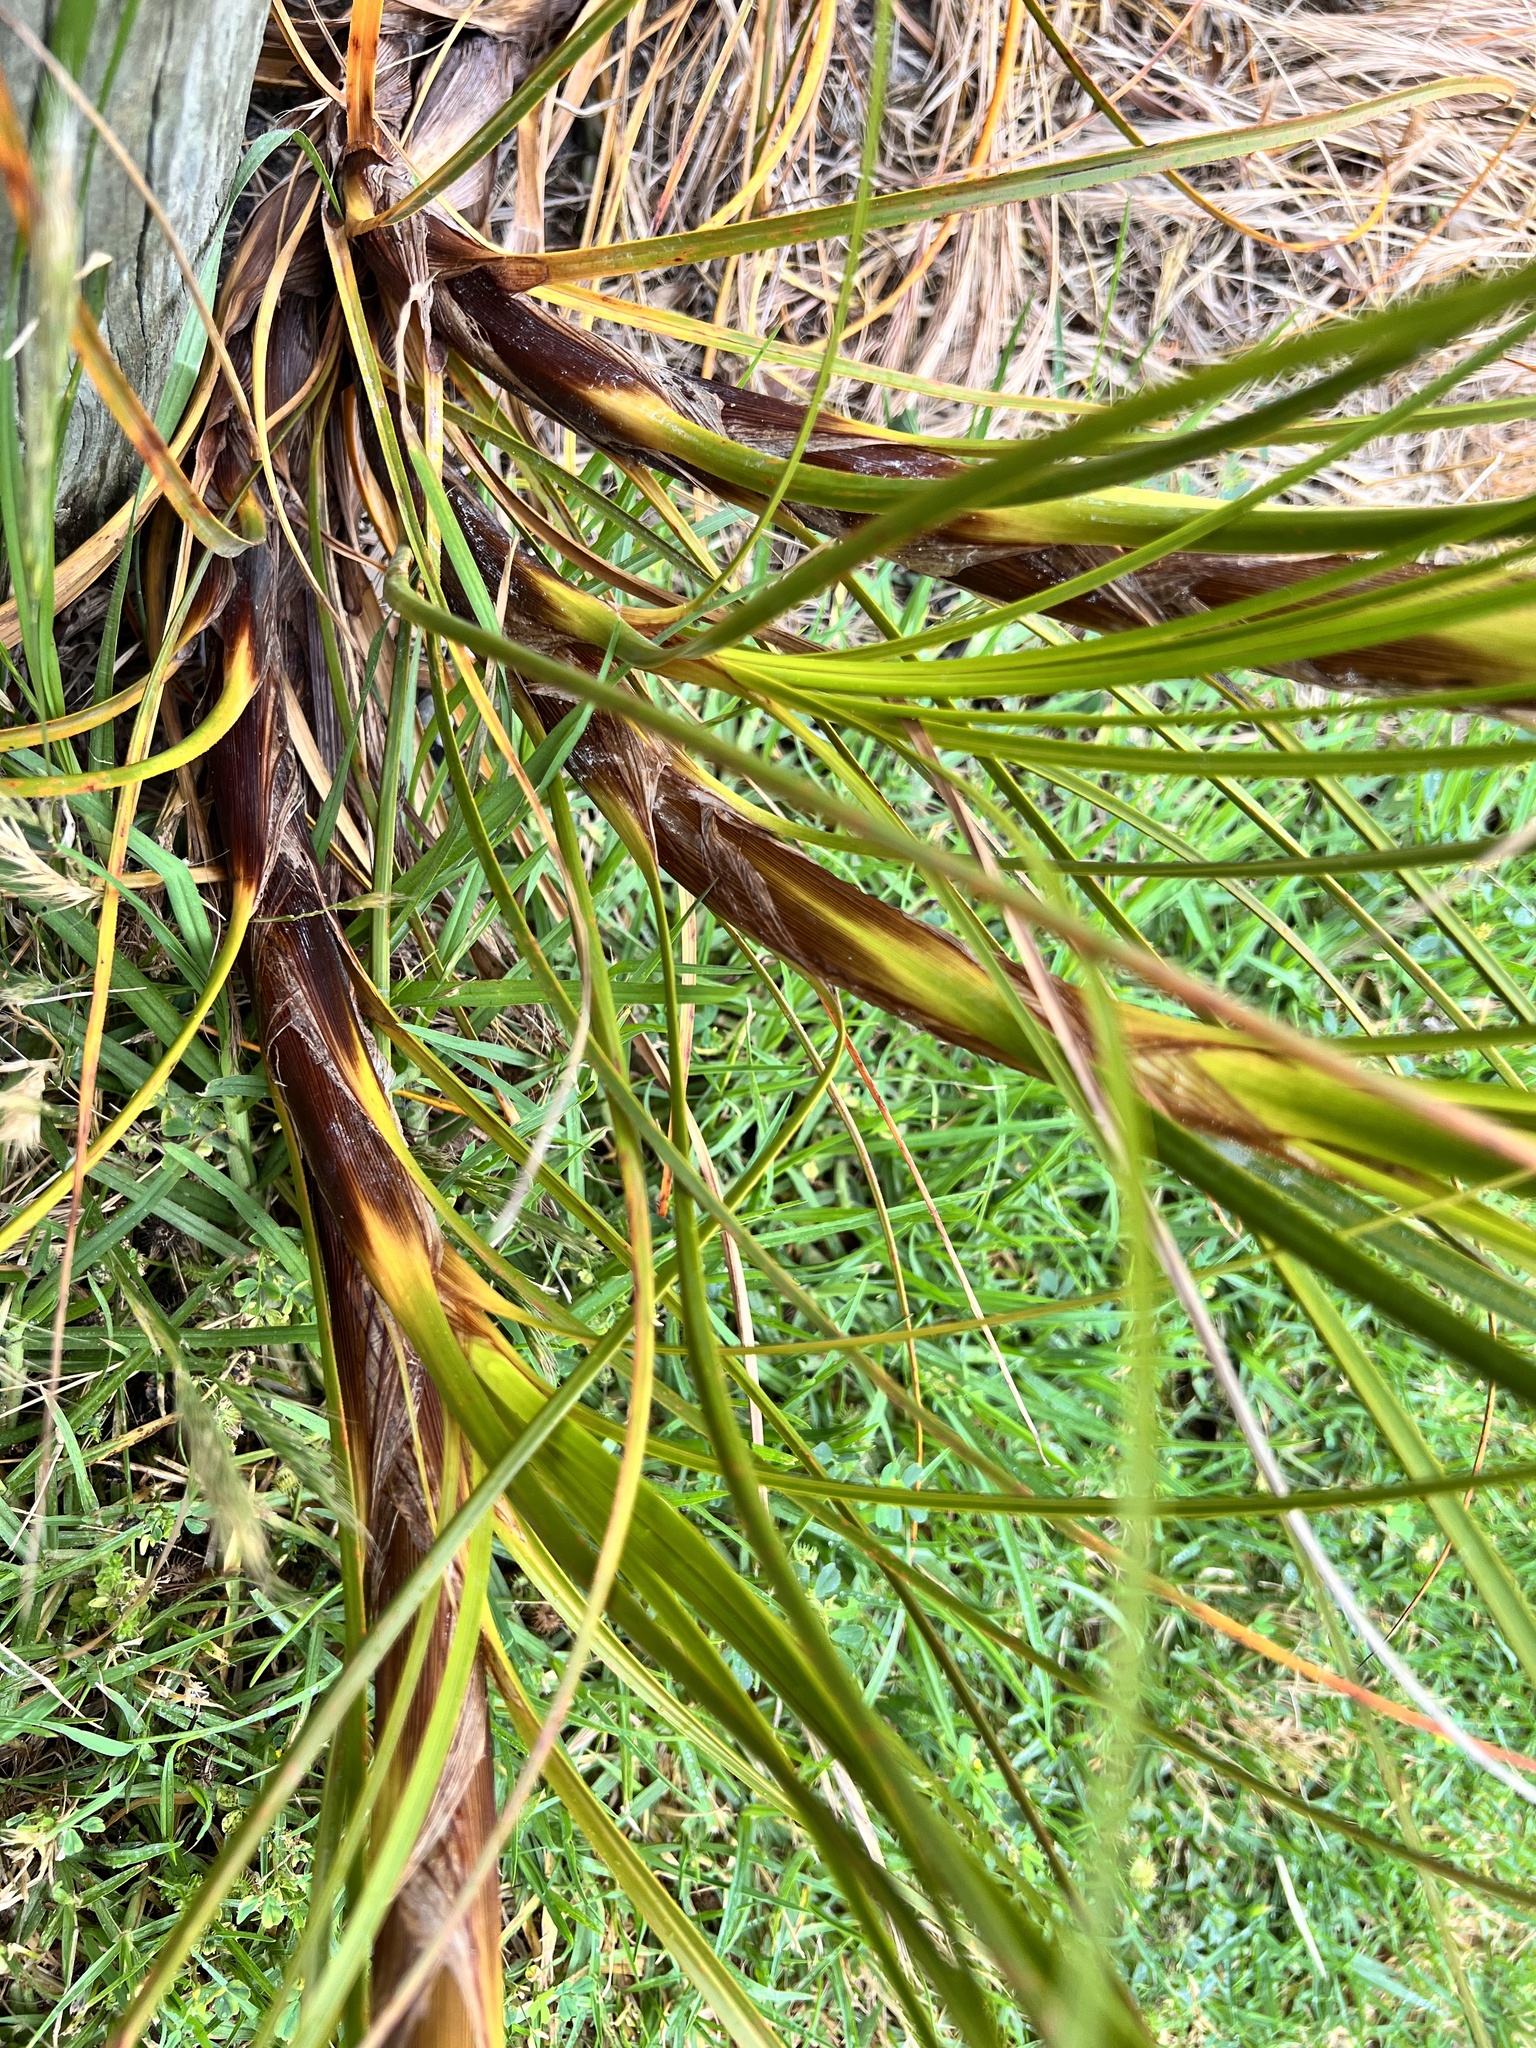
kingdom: Plantae
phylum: Tracheophyta
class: Liliopsida
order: Poales
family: Cyperaceae
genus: Ficinia
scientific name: Ficinia spiralis
